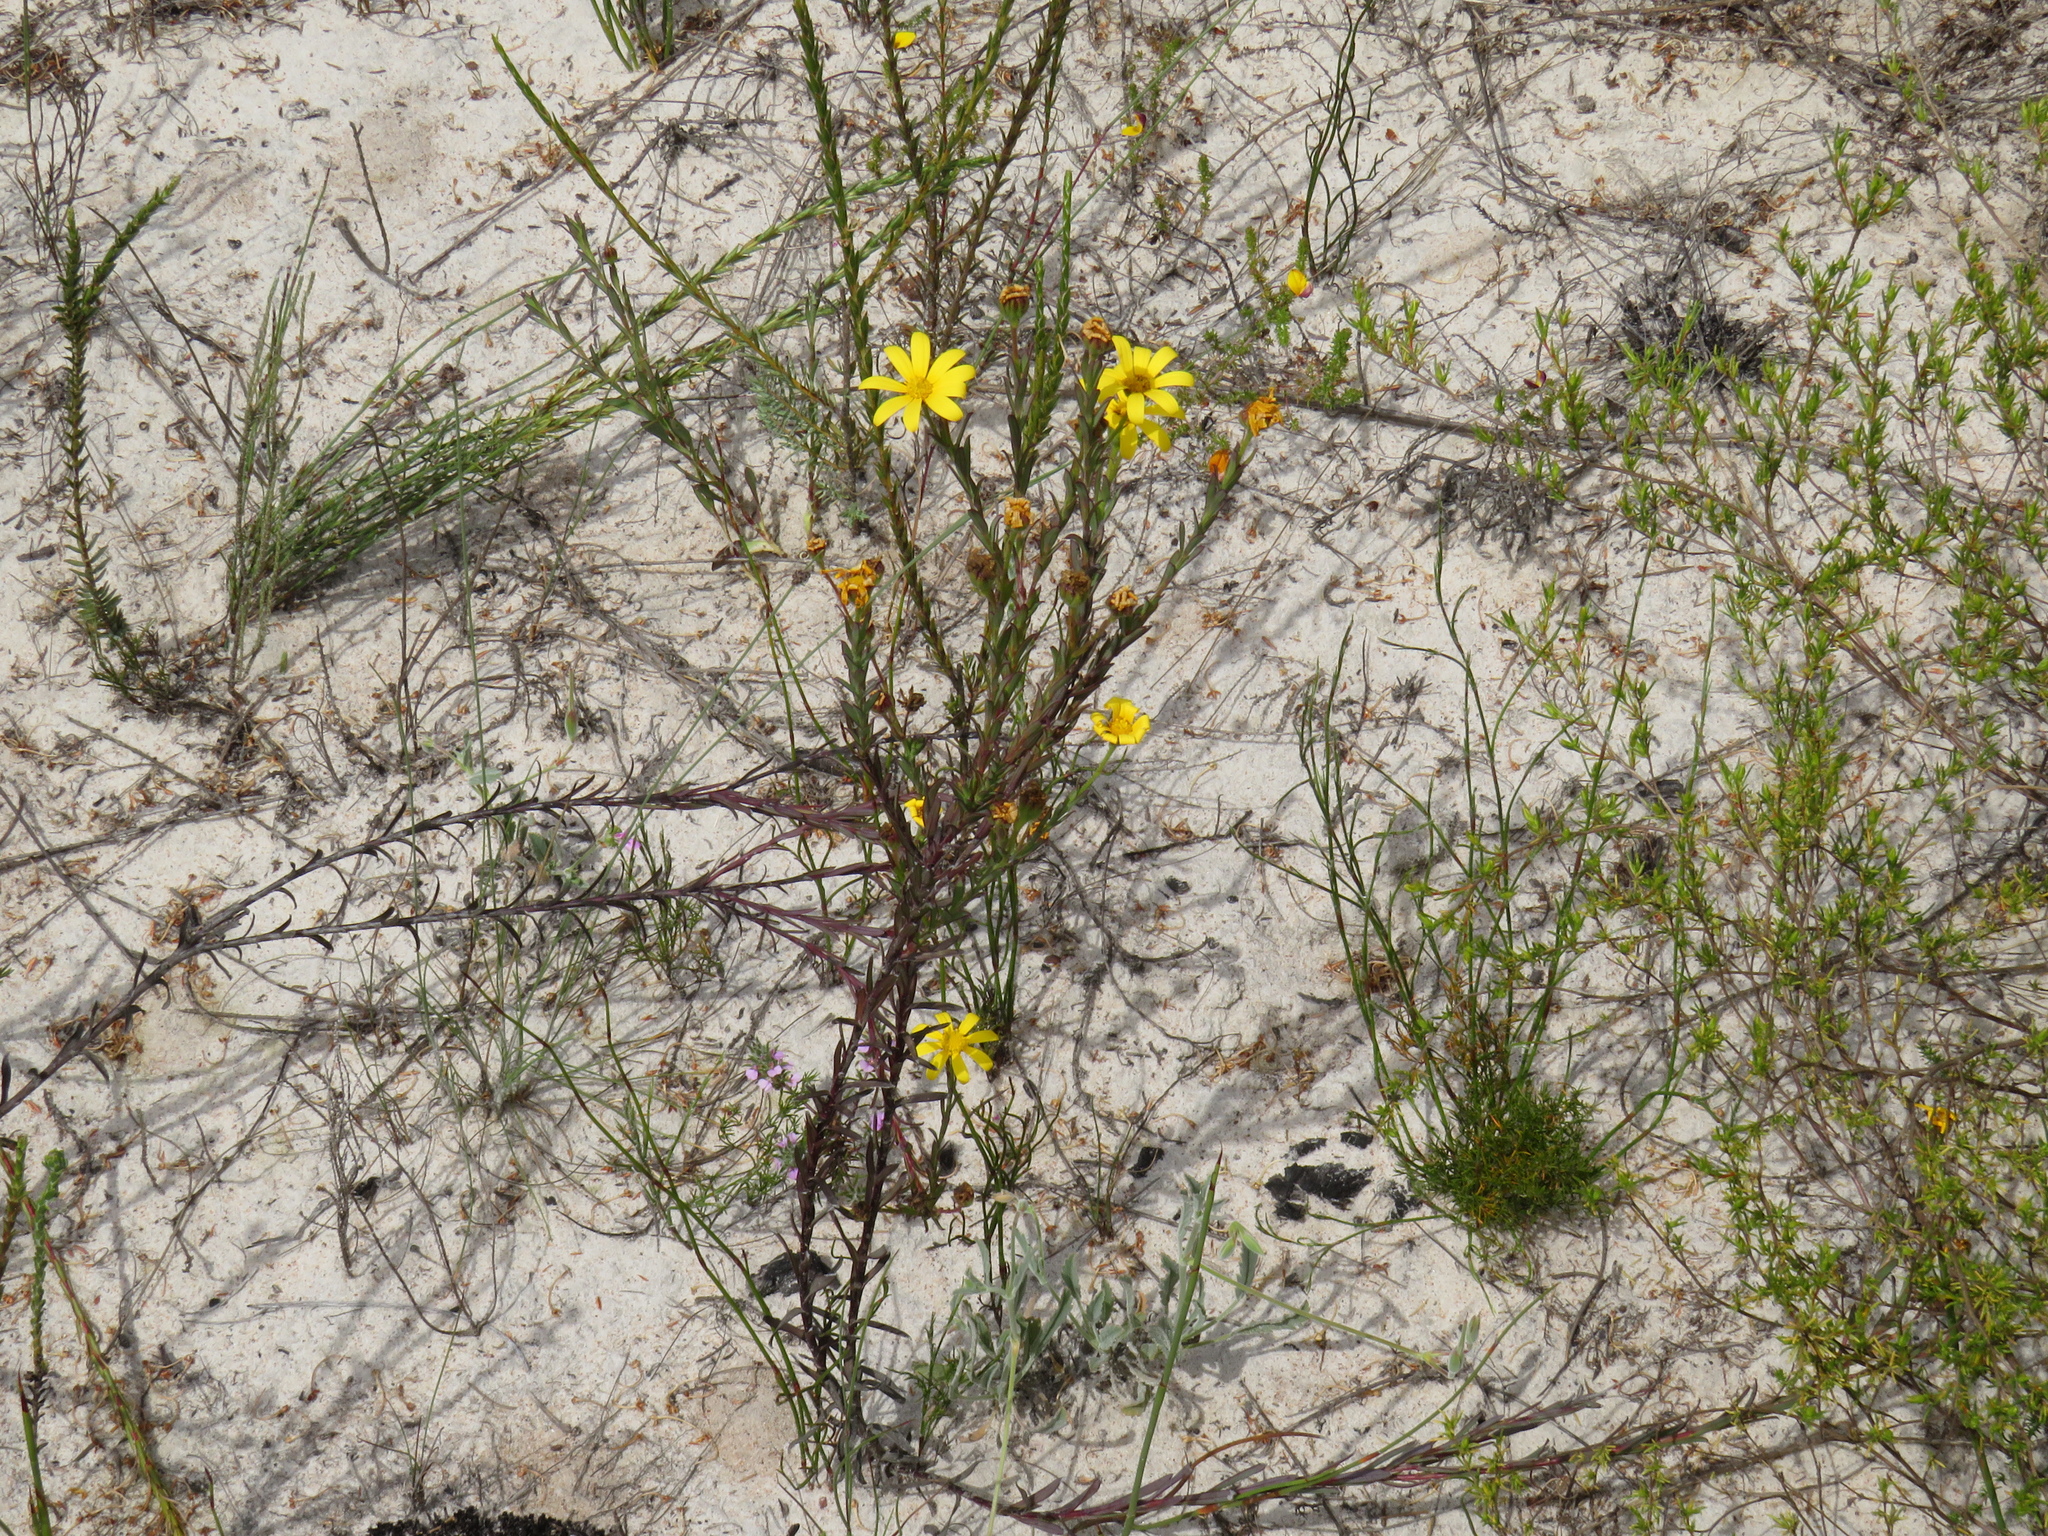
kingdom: Plantae
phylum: Tracheophyta
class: Magnoliopsida
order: Asterales
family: Asteraceae
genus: Osteospermum
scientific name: Osteospermum polygaloides
